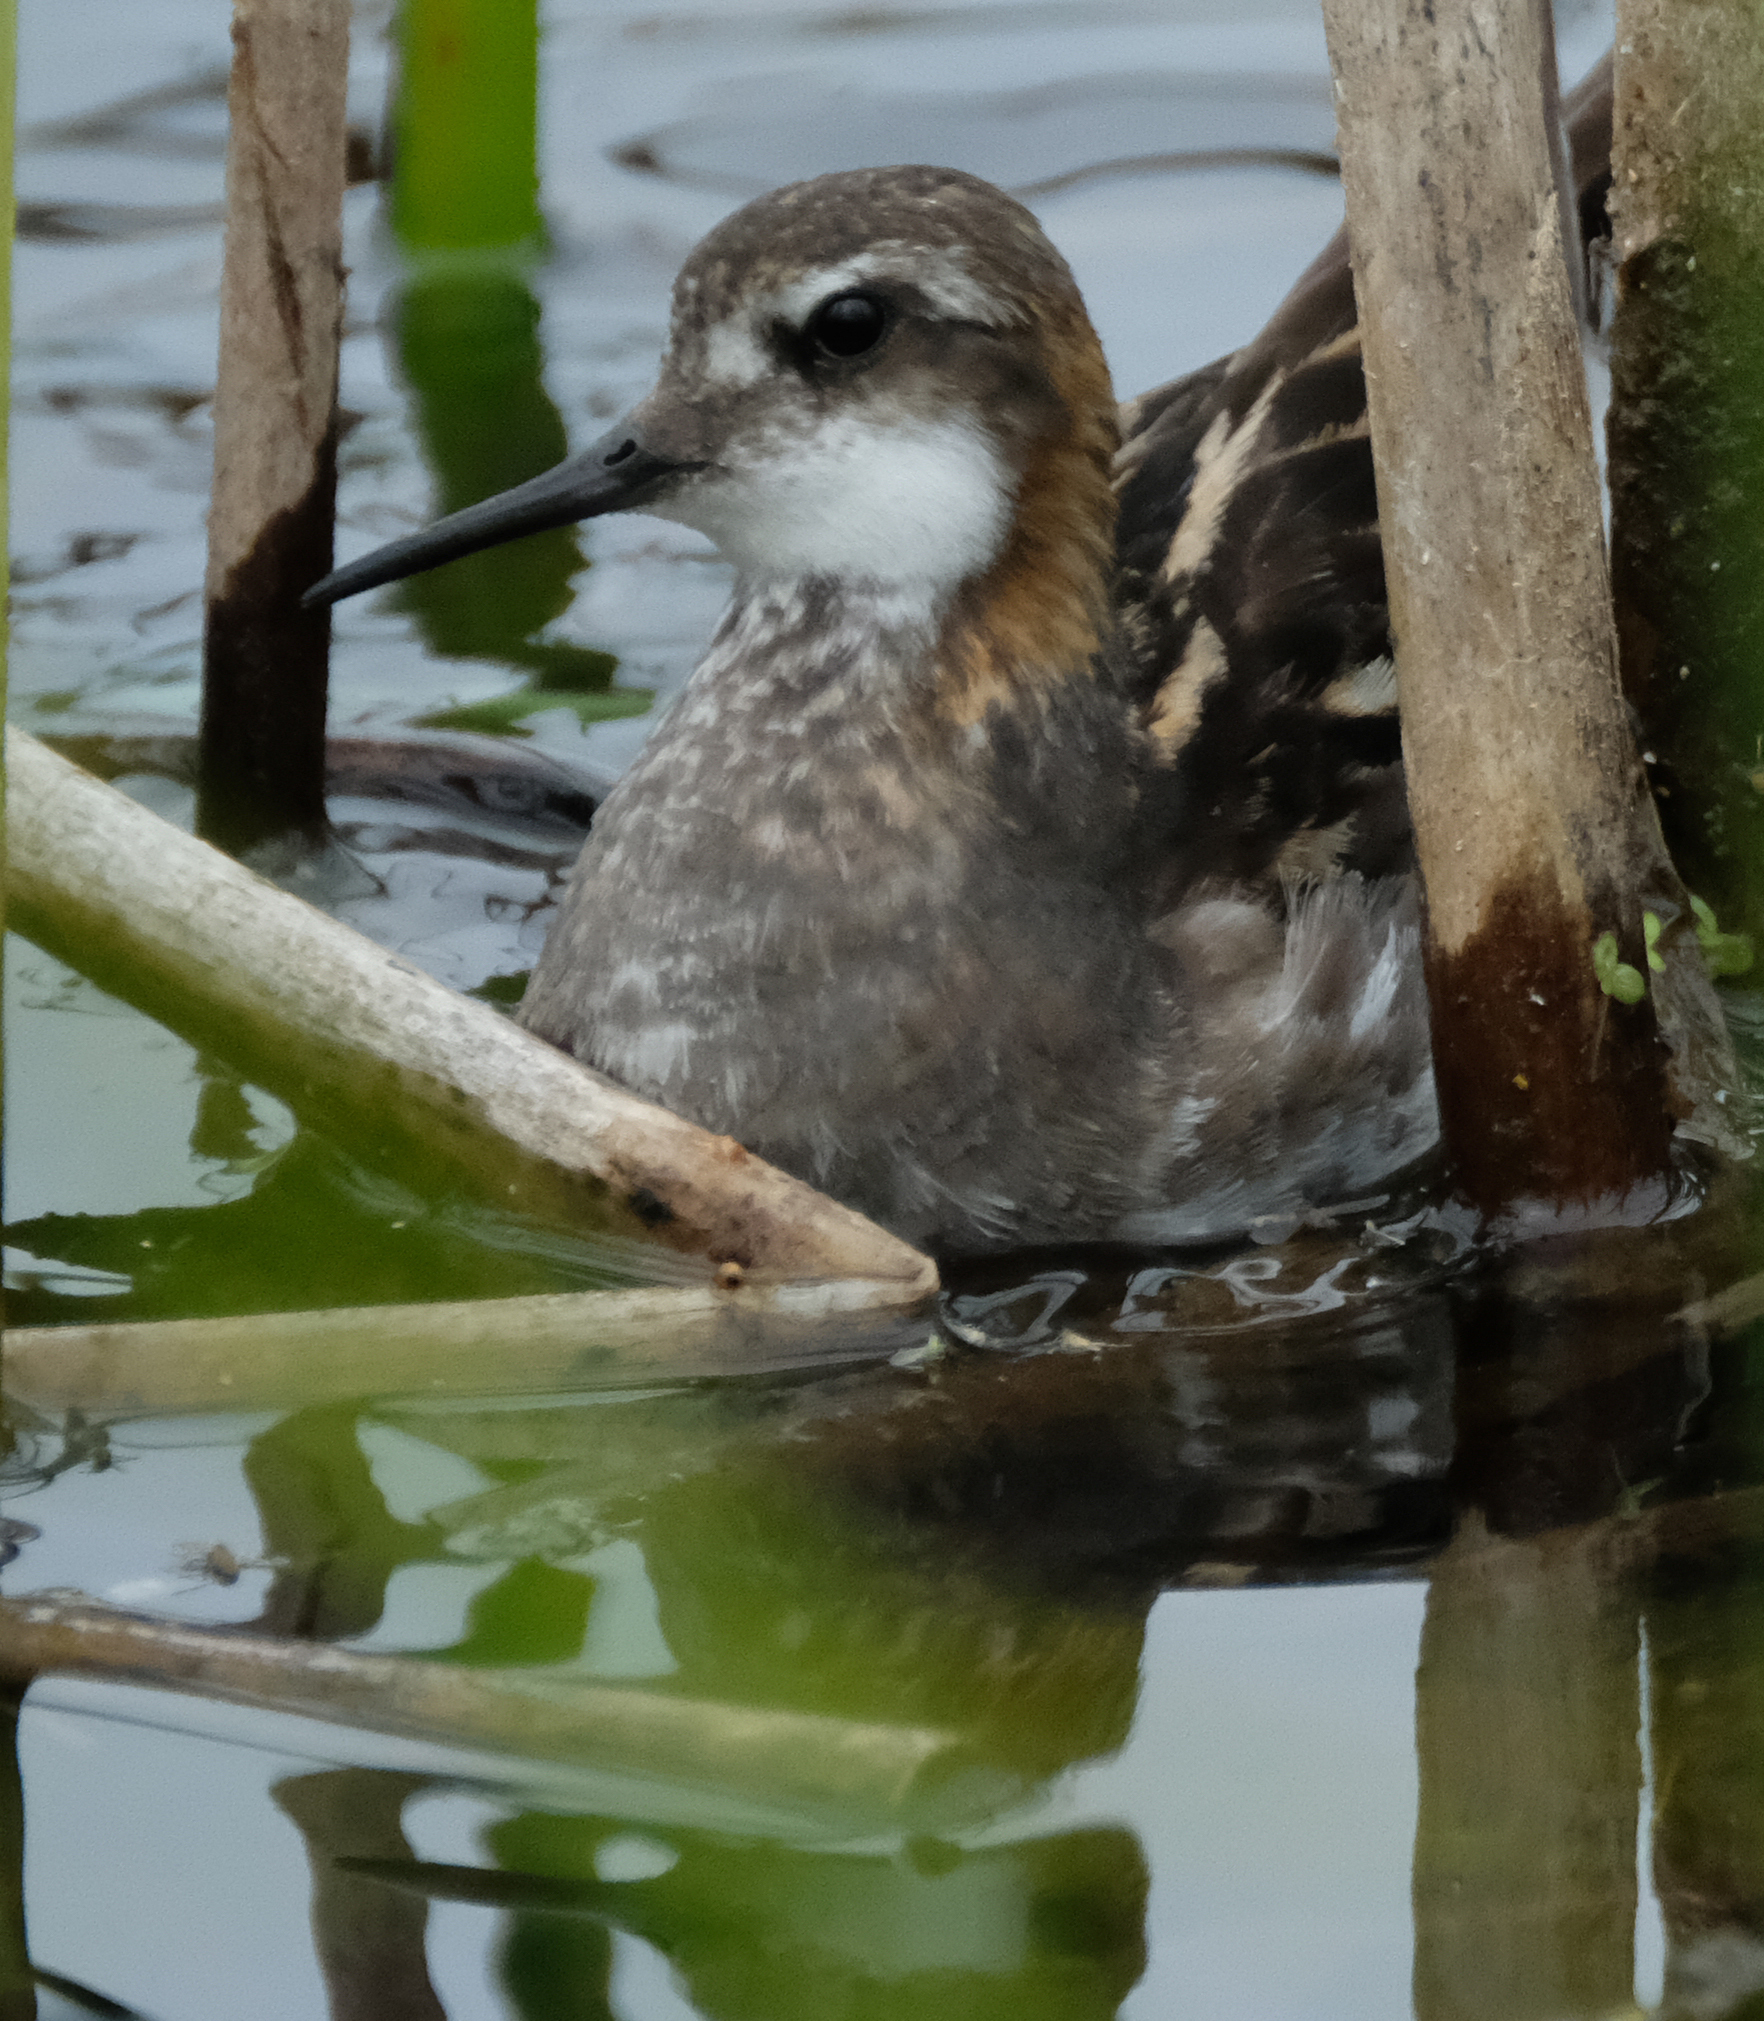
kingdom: Animalia
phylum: Chordata
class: Aves
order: Charadriiformes
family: Scolopacidae
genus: Phalaropus
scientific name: Phalaropus lobatus
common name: Red-necked phalarope
